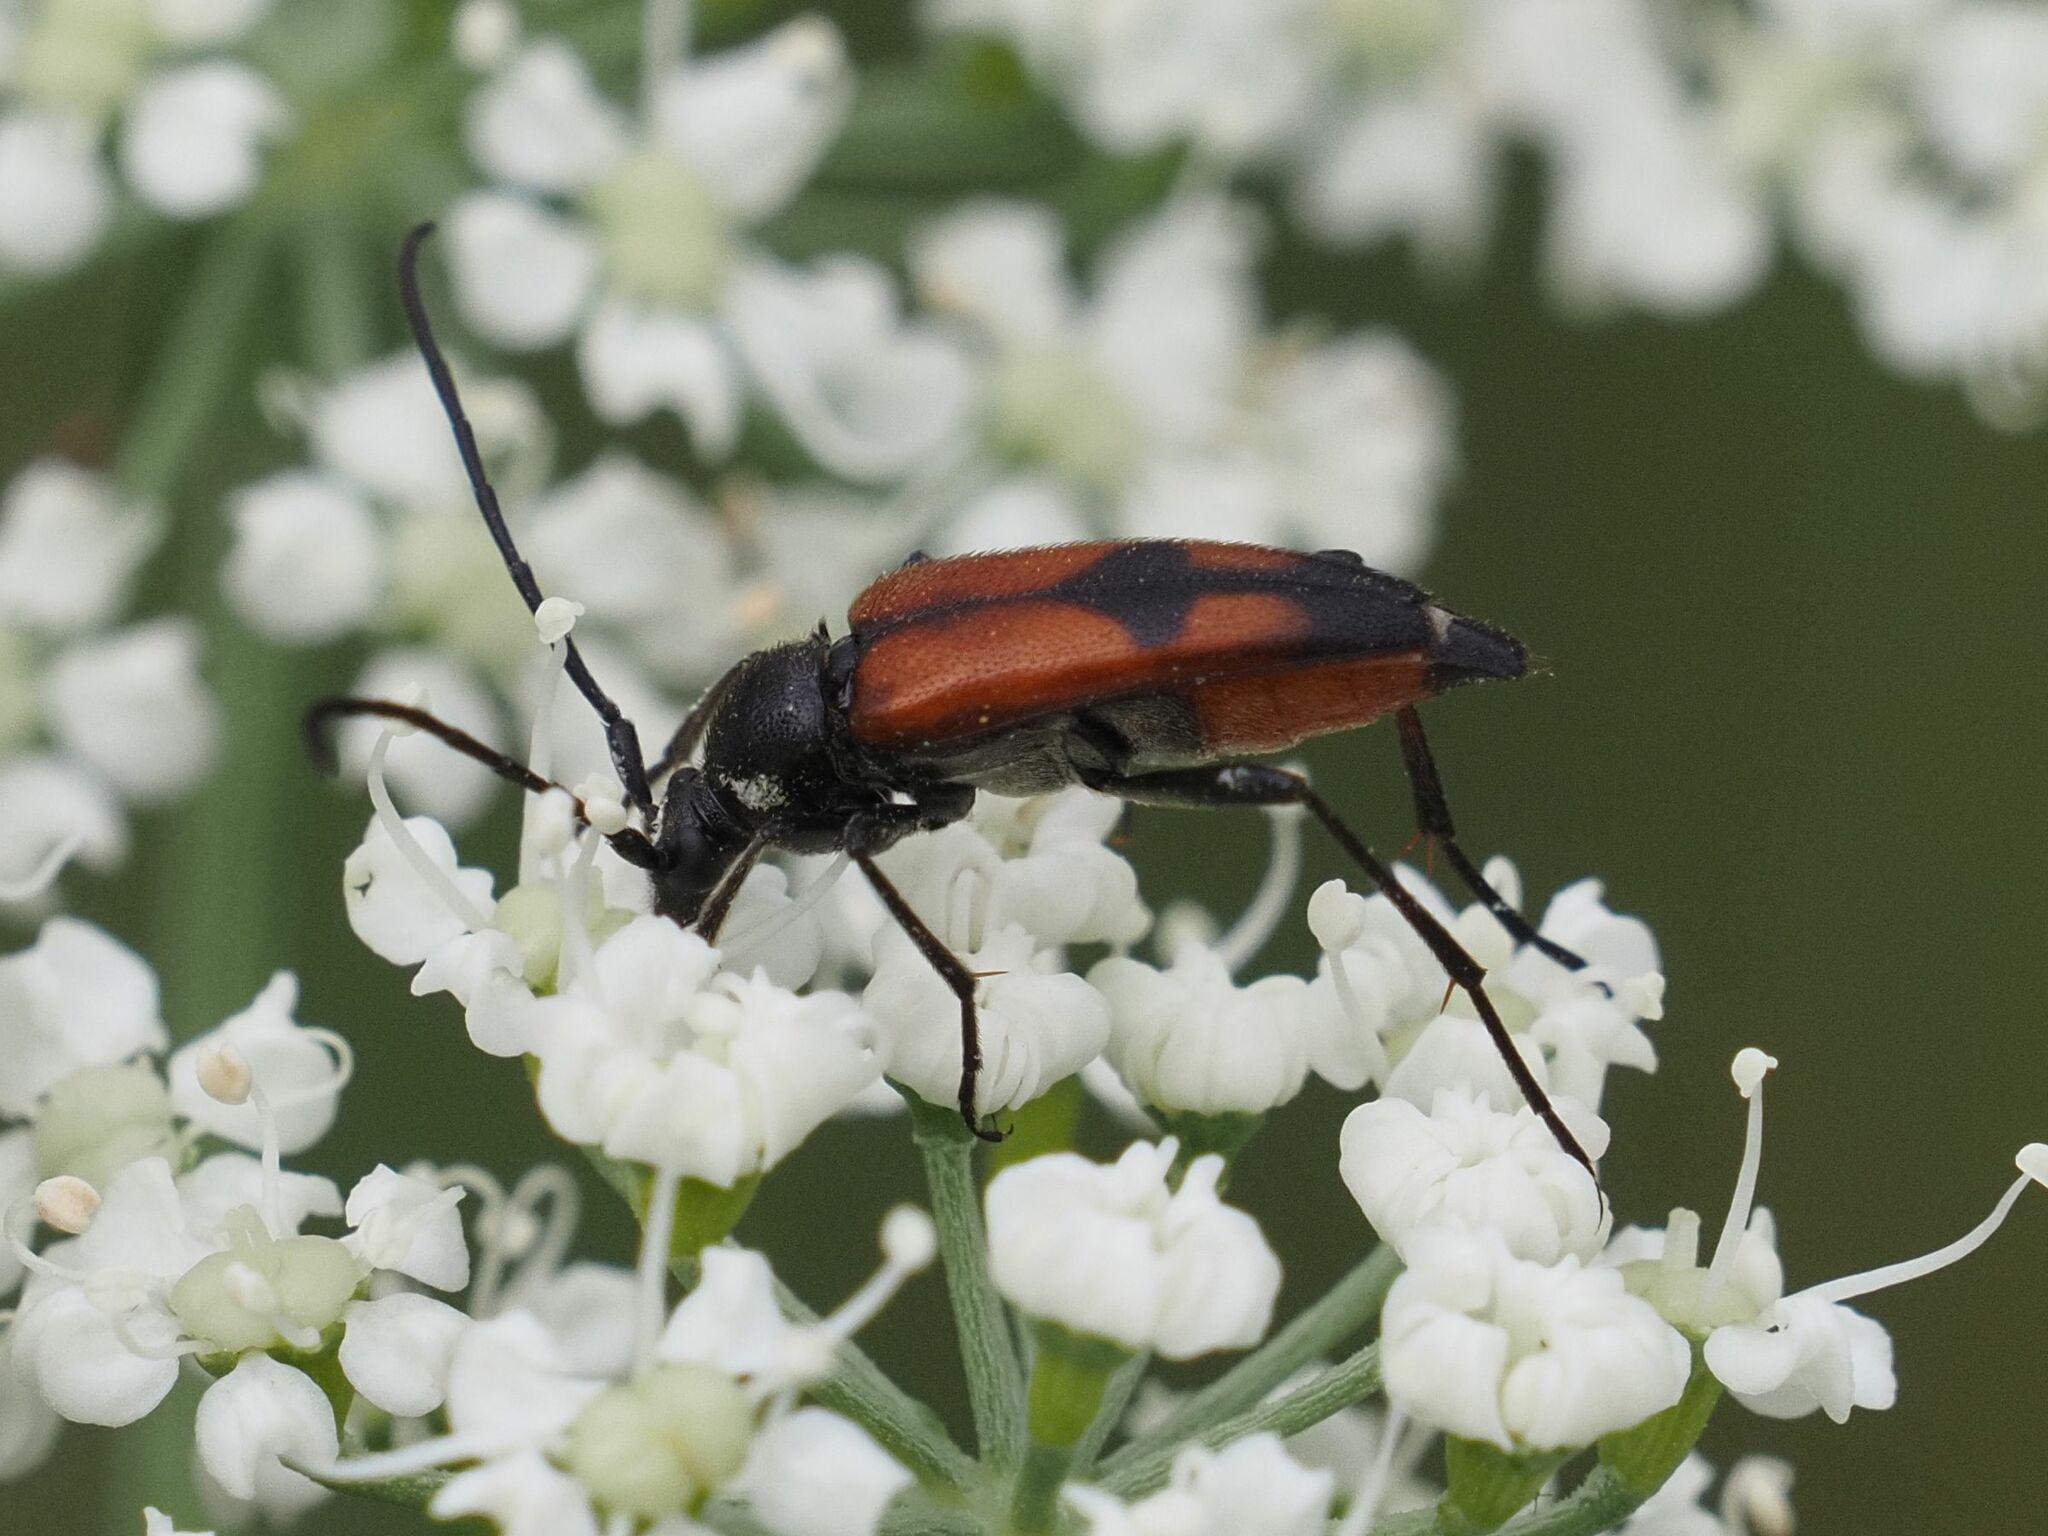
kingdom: Animalia
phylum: Arthropoda
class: Insecta
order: Coleoptera
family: Cerambycidae
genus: Stenurella
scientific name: Stenurella bifasciata
